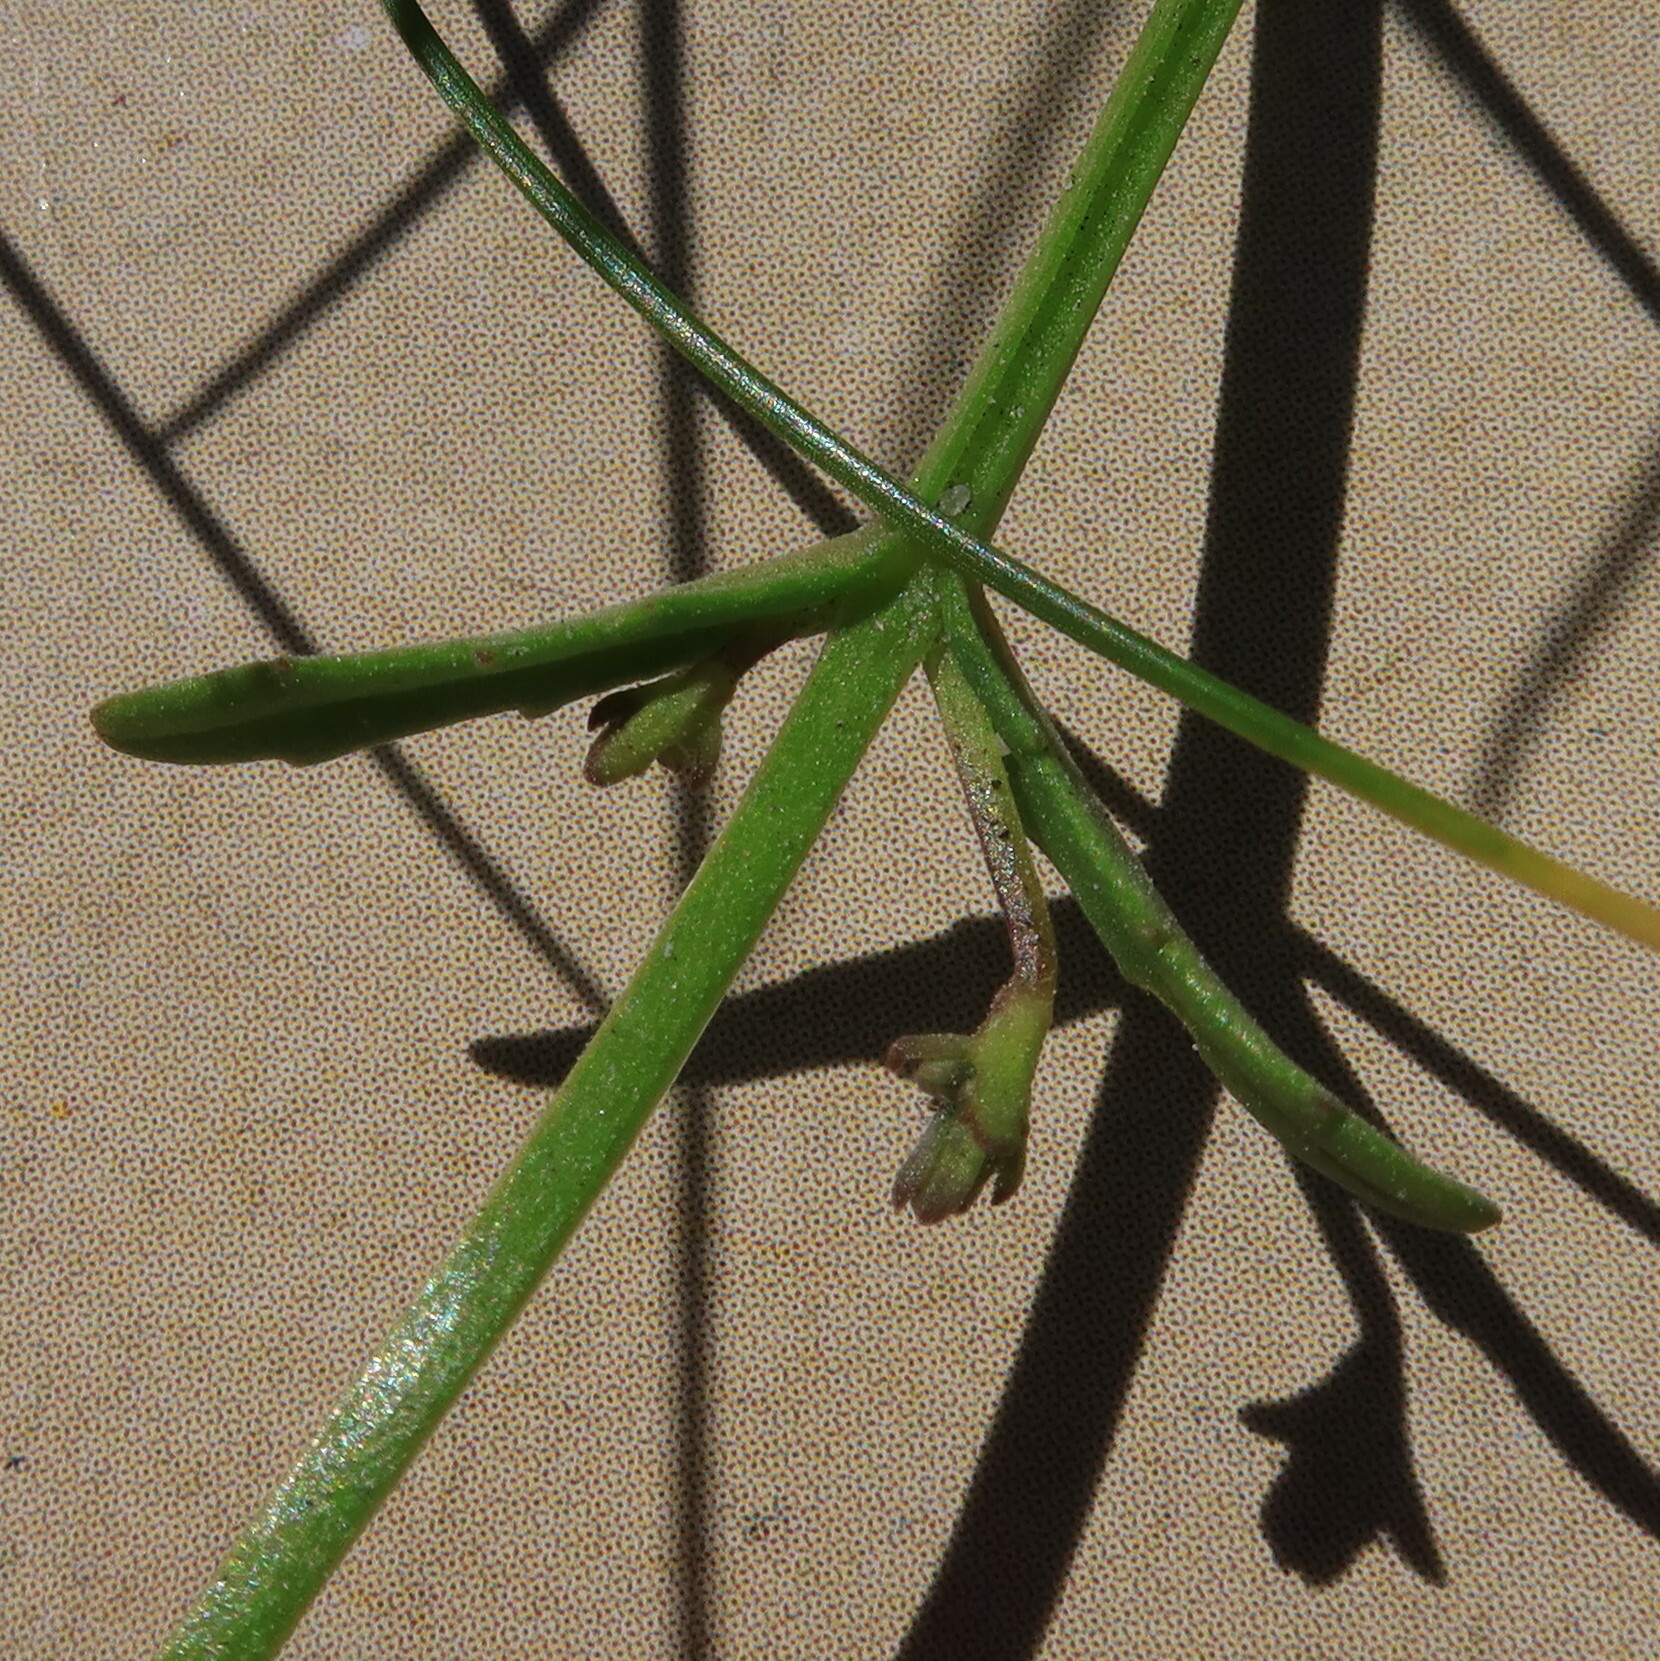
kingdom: Plantae
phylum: Tracheophyta
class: Magnoliopsida
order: Lamiales
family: Scrophulariaceae
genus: Nemesia
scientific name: Nemesia affinis
